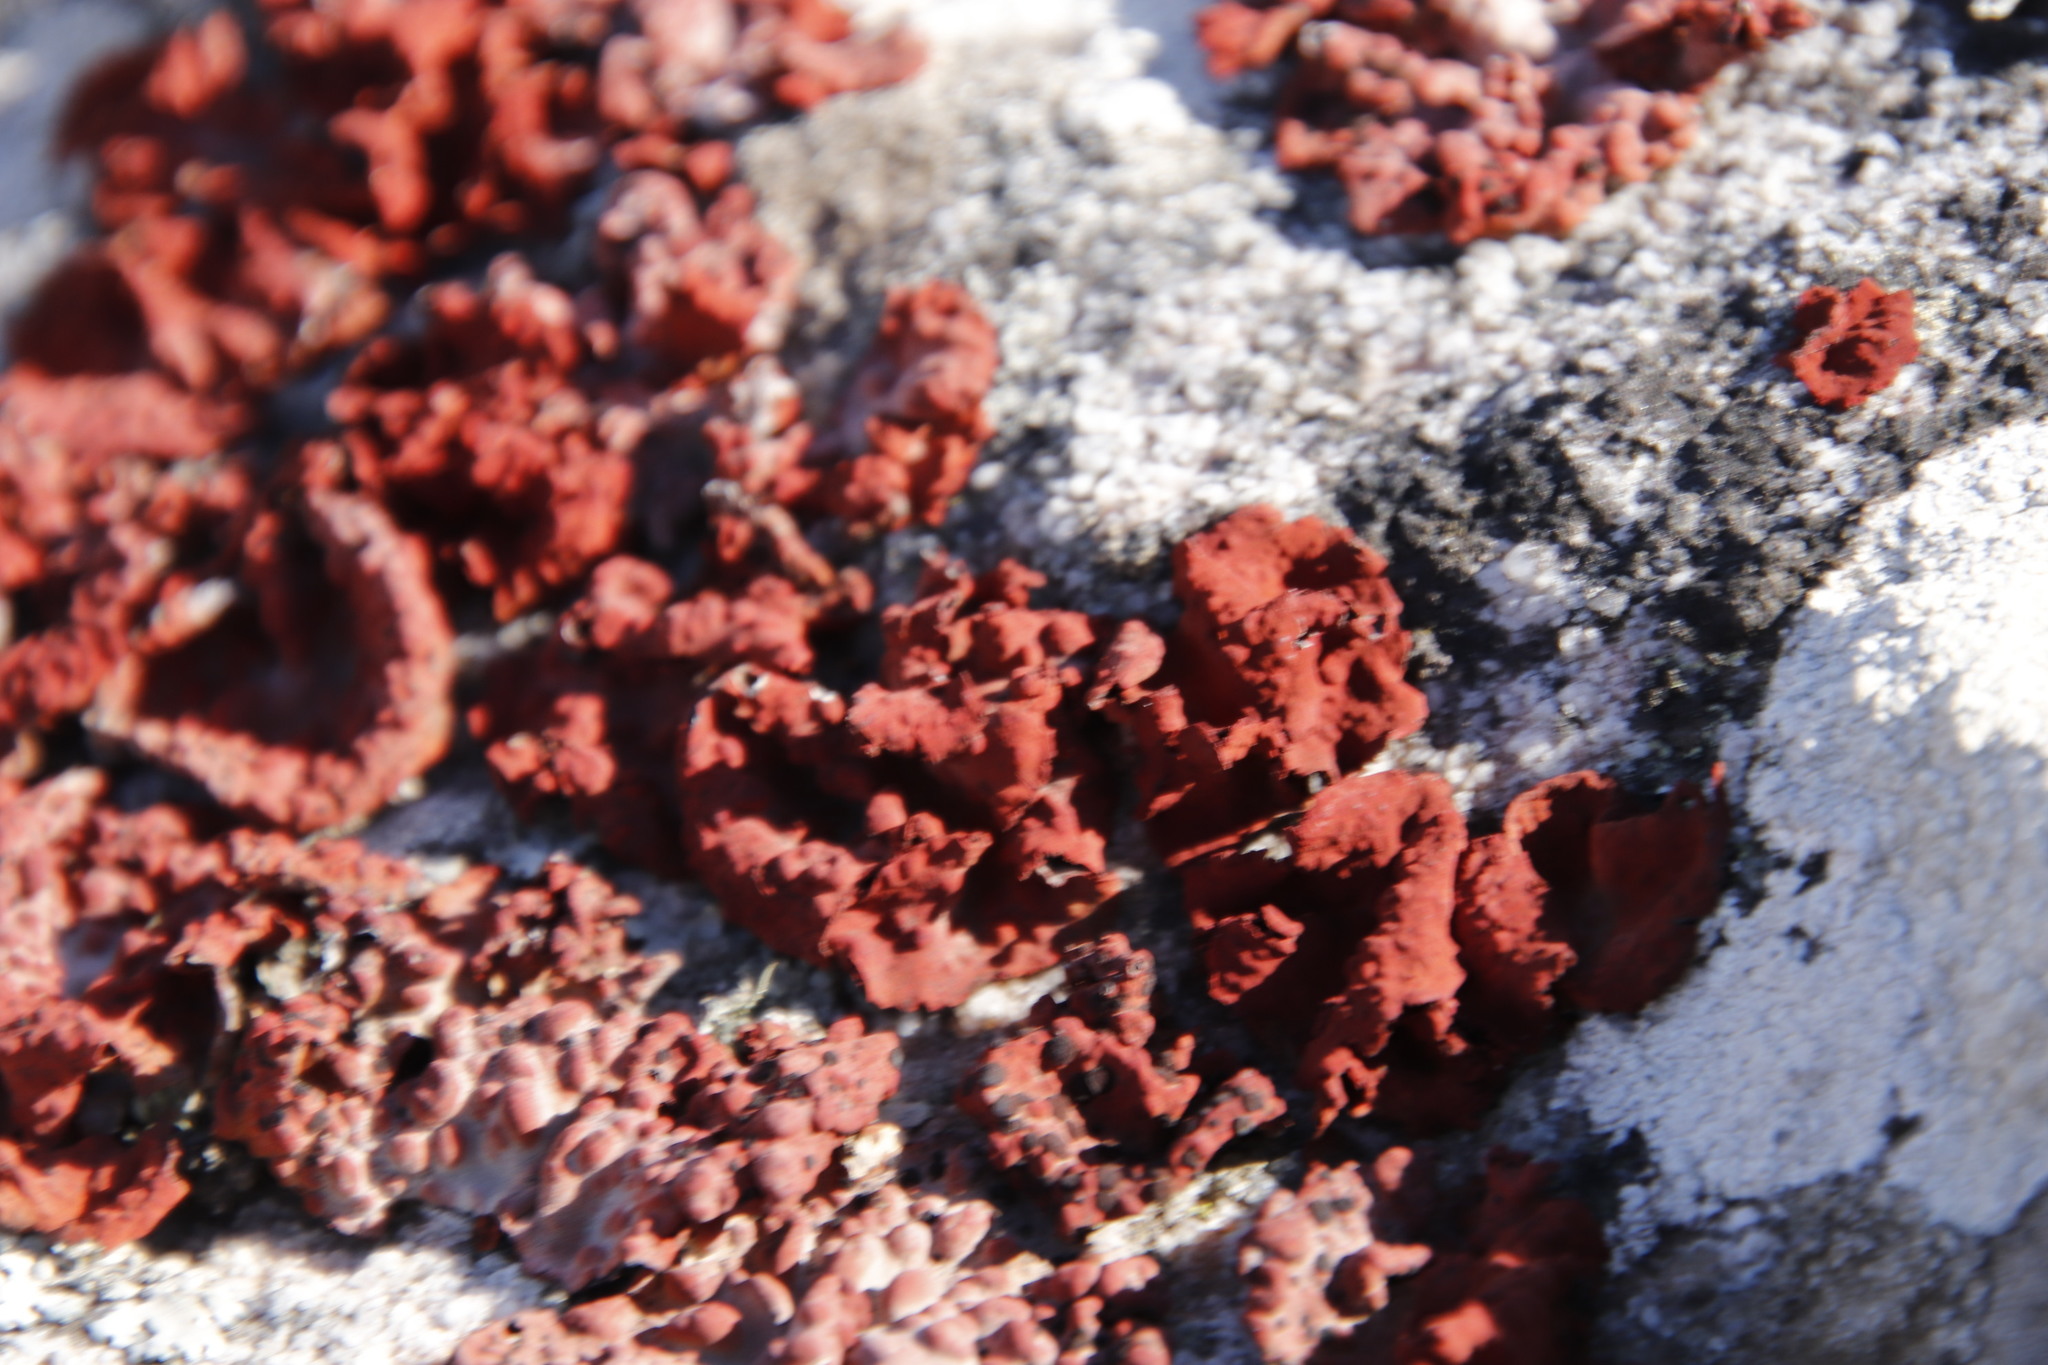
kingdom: Fungi
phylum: Ascomycota
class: Lecanoromycetes
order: Umbilicariales
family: Umbilicariaceae
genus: Lasallia
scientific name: Lasallia rubiginosa
